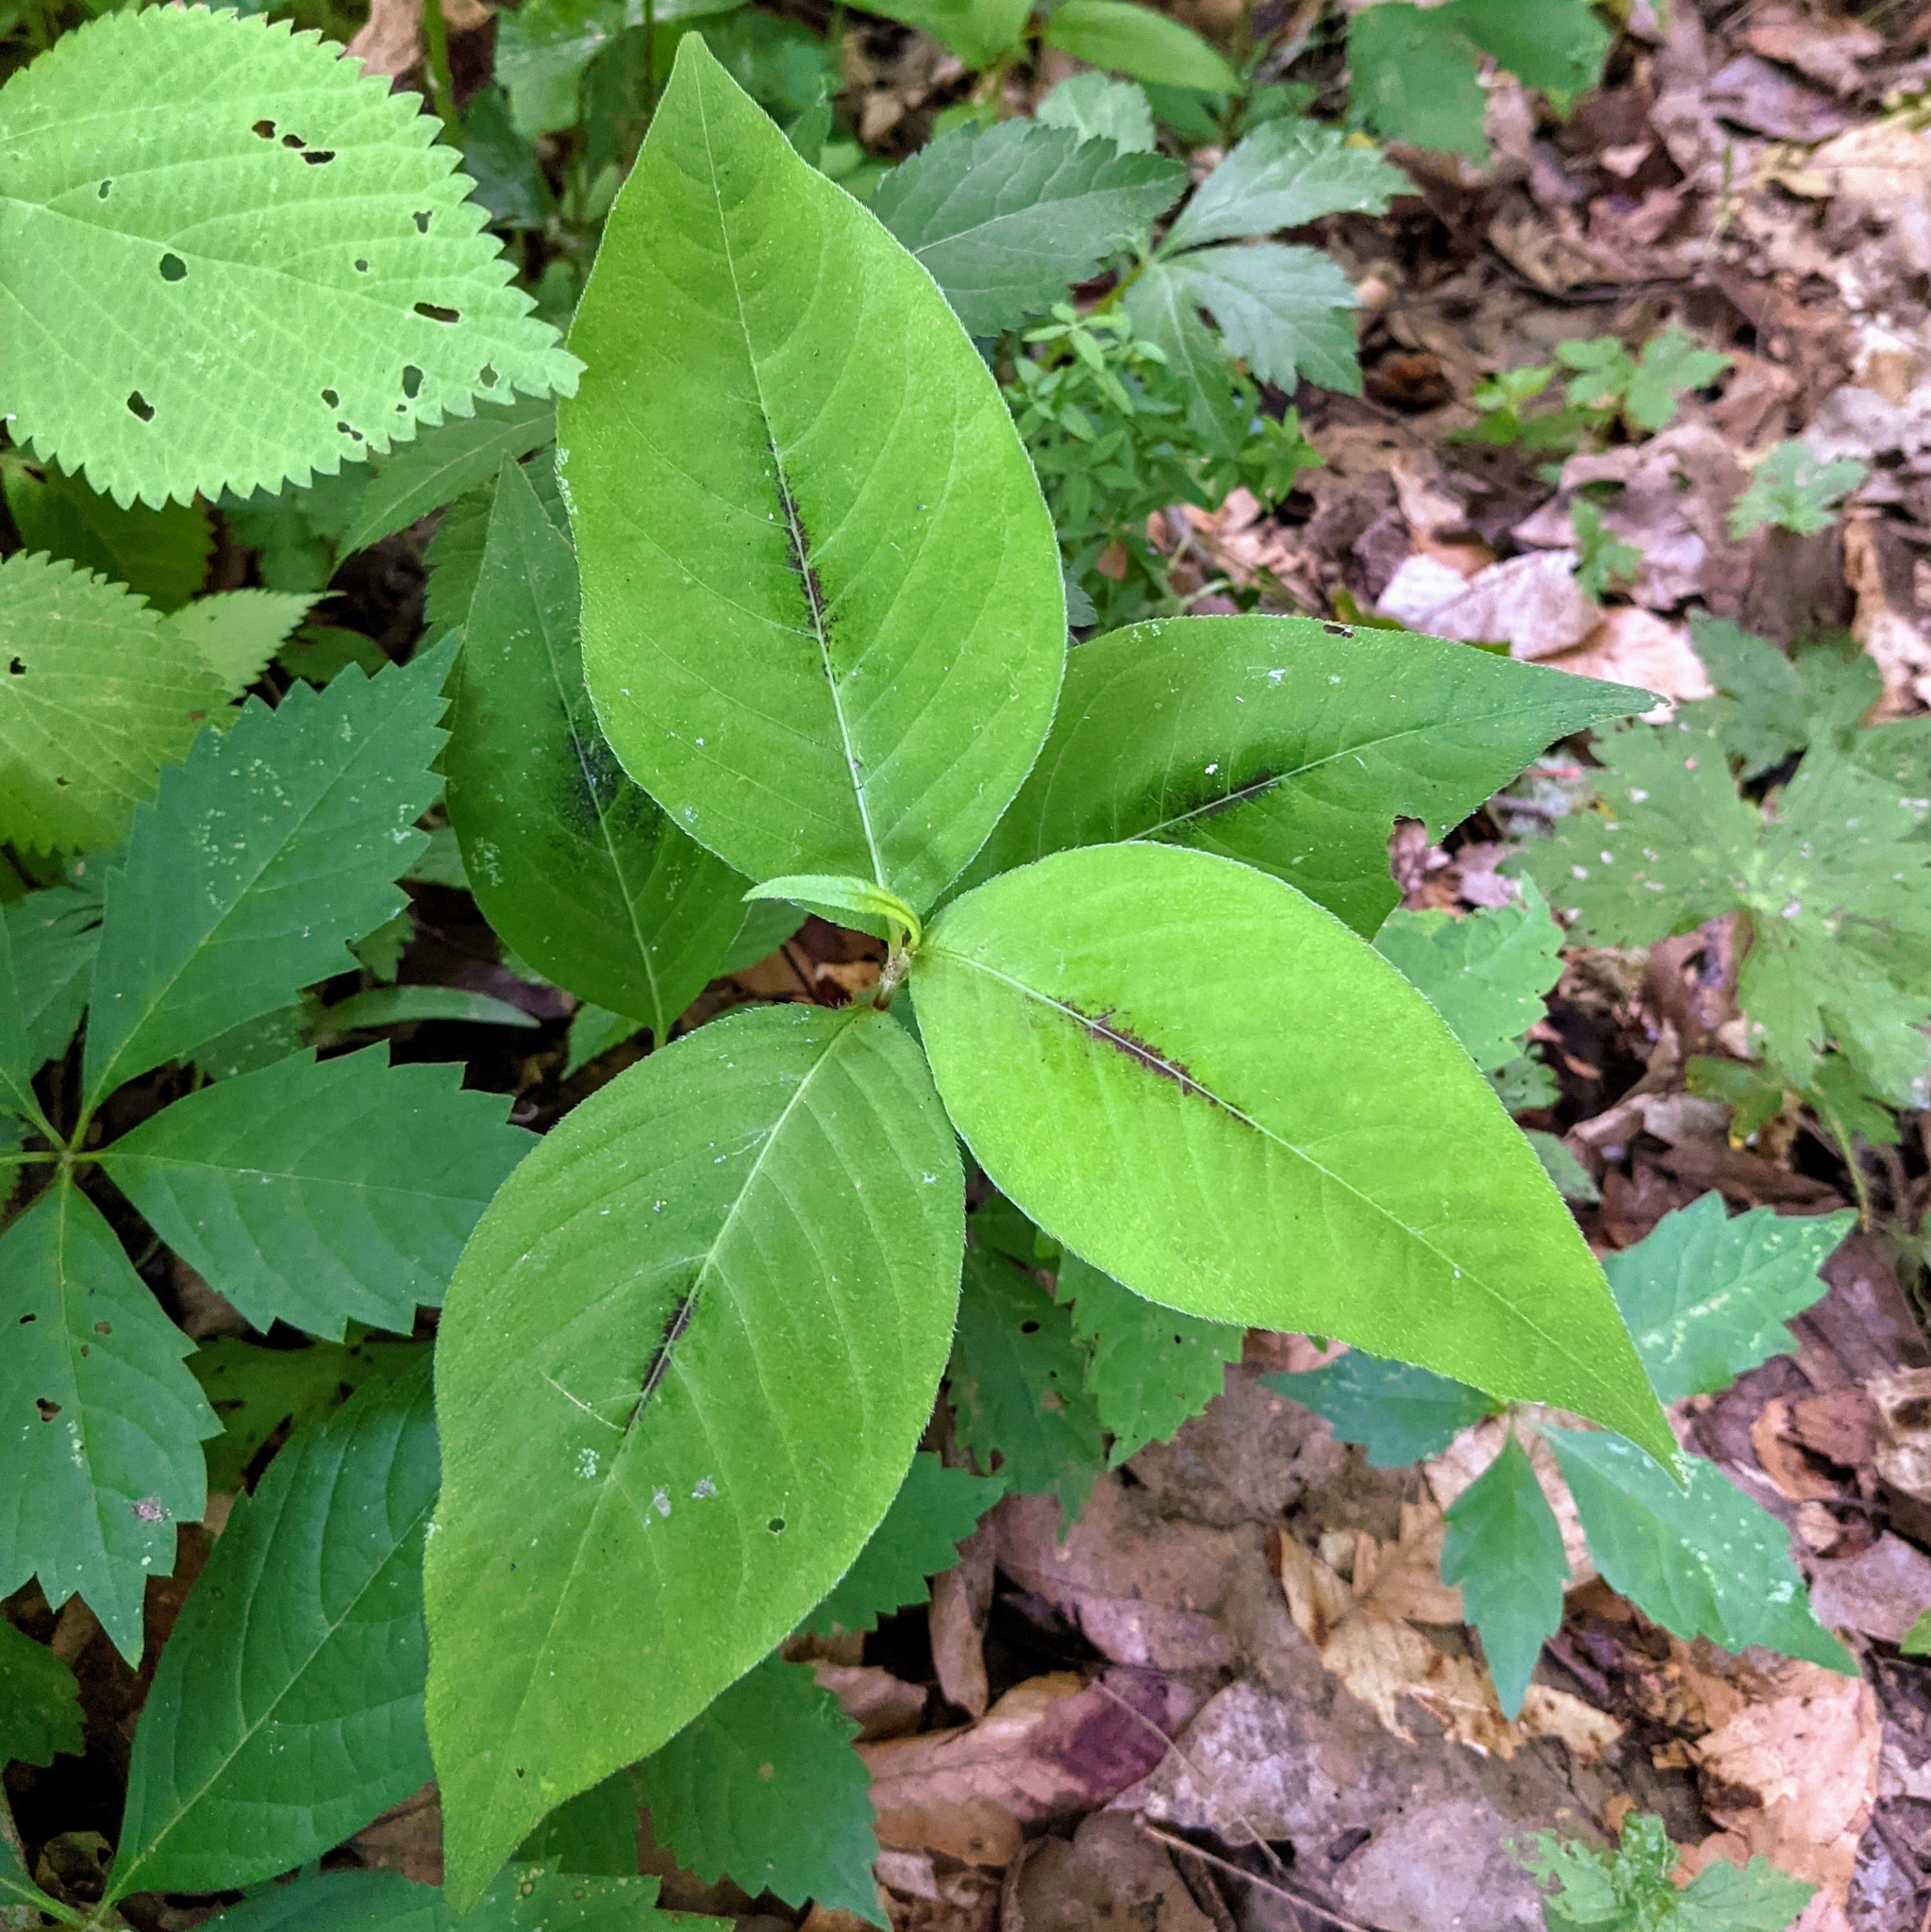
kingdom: Plantae
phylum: Tracheophyta
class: Magnoliopsida
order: Caryophyllales
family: Polygonaceae
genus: Persicaria
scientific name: Persicaria virginiana
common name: Jumpseed
